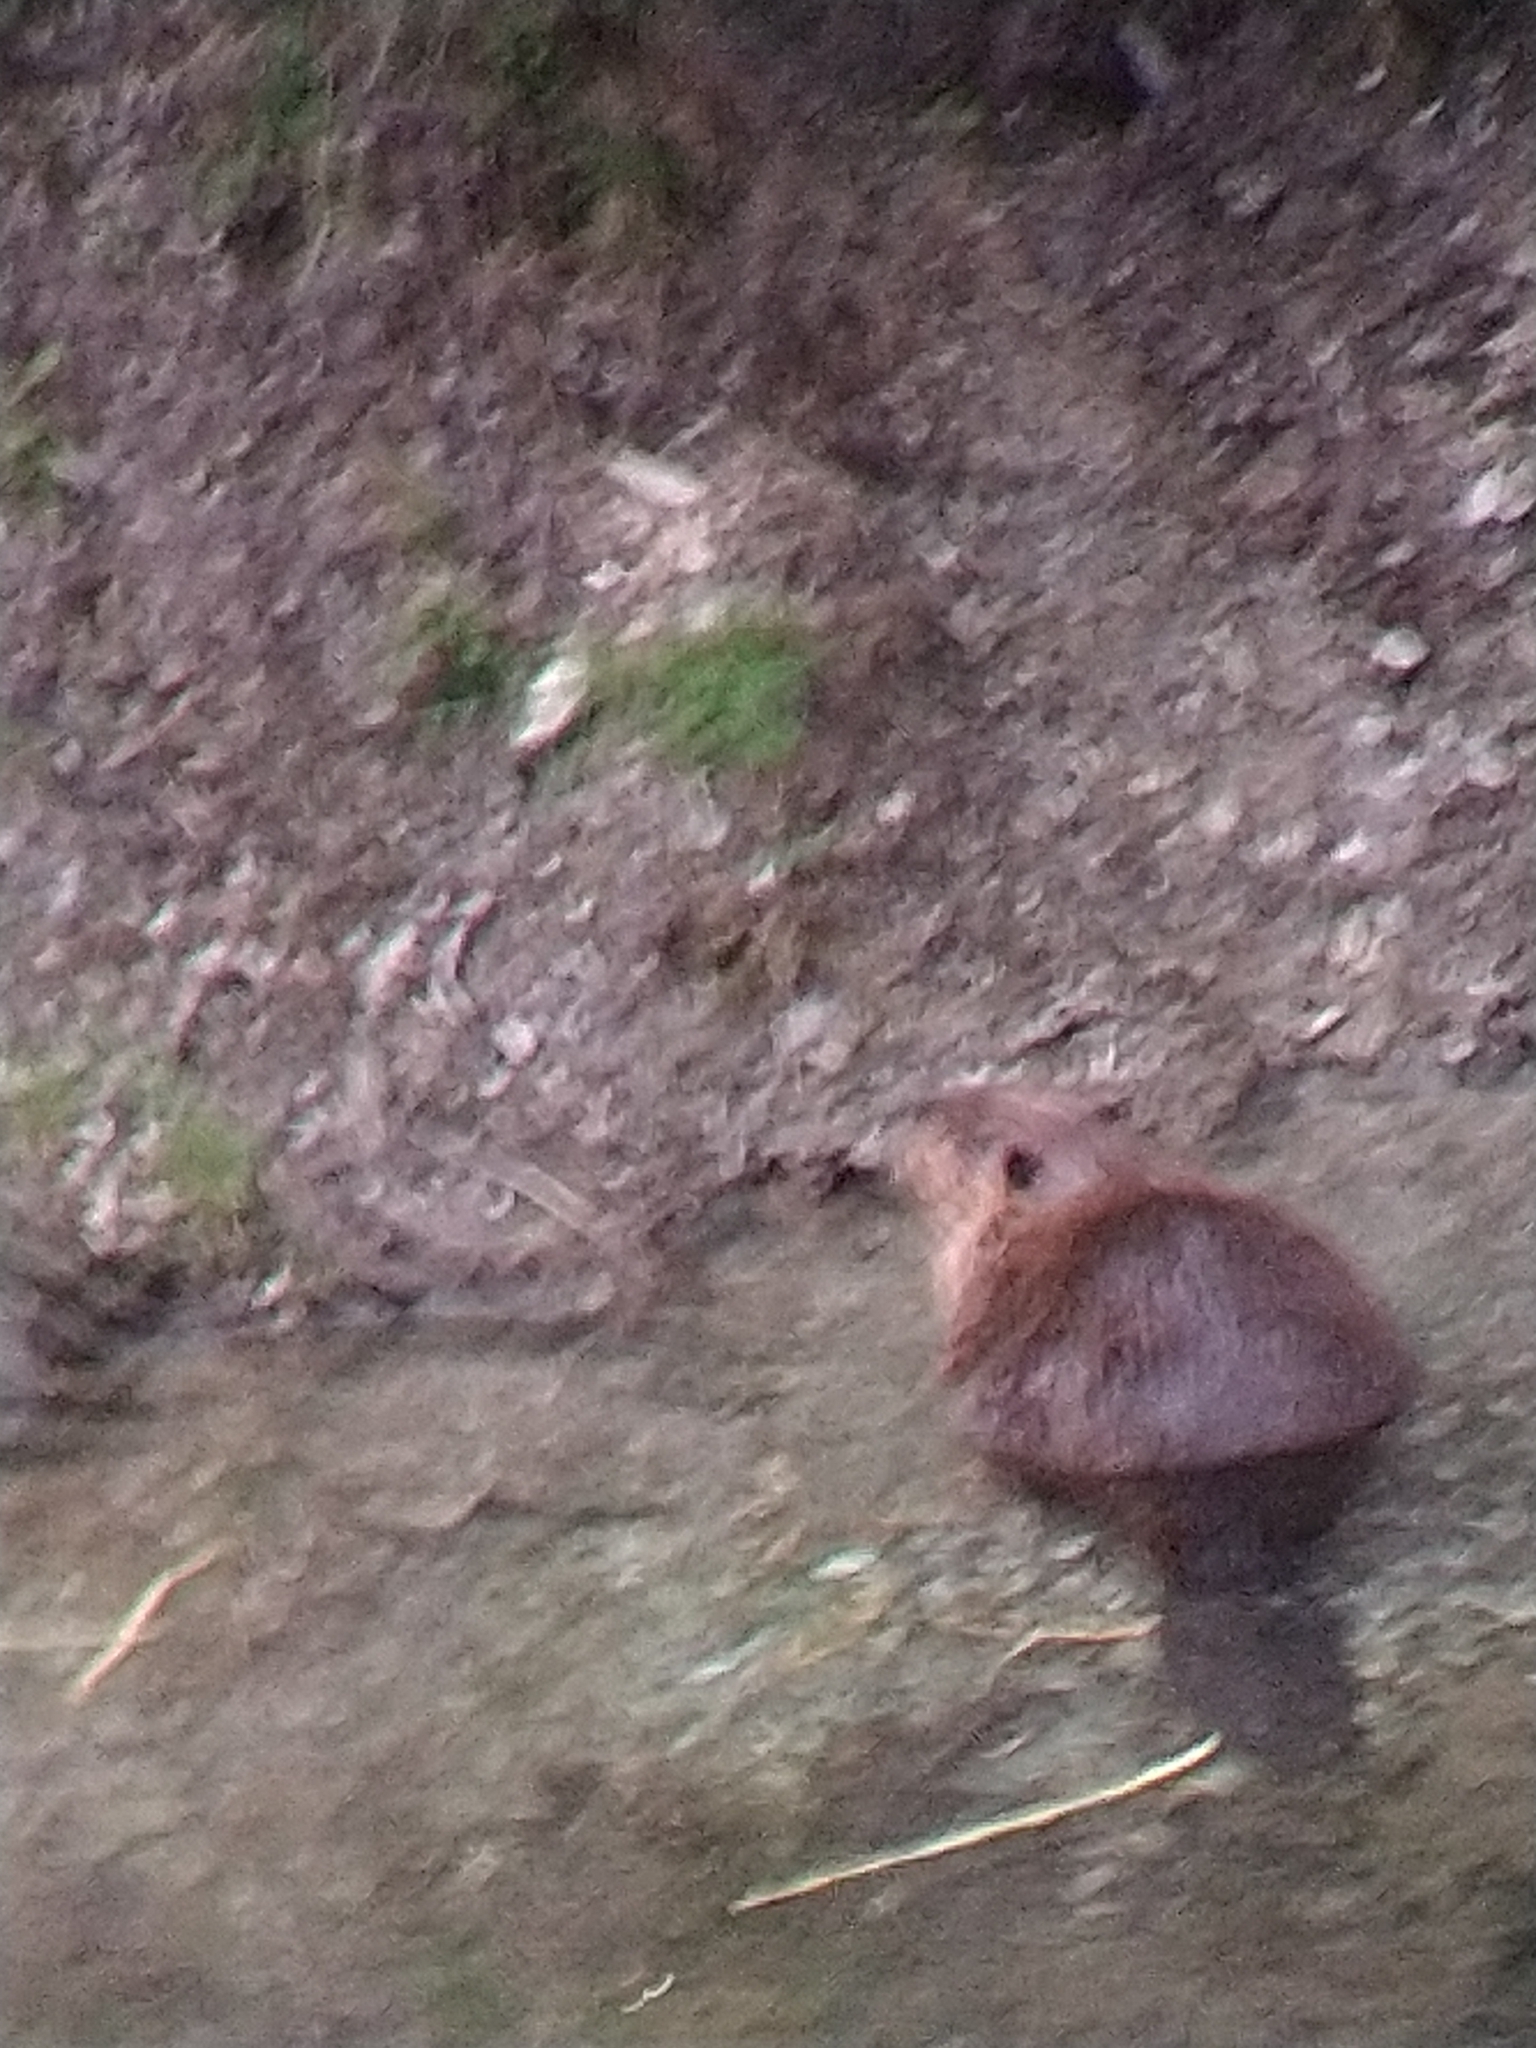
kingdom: Animalia
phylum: Chordata
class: Mammalia
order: Rodentia
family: Castoridae
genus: Castor
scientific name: Castor canadensis
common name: American beaver
